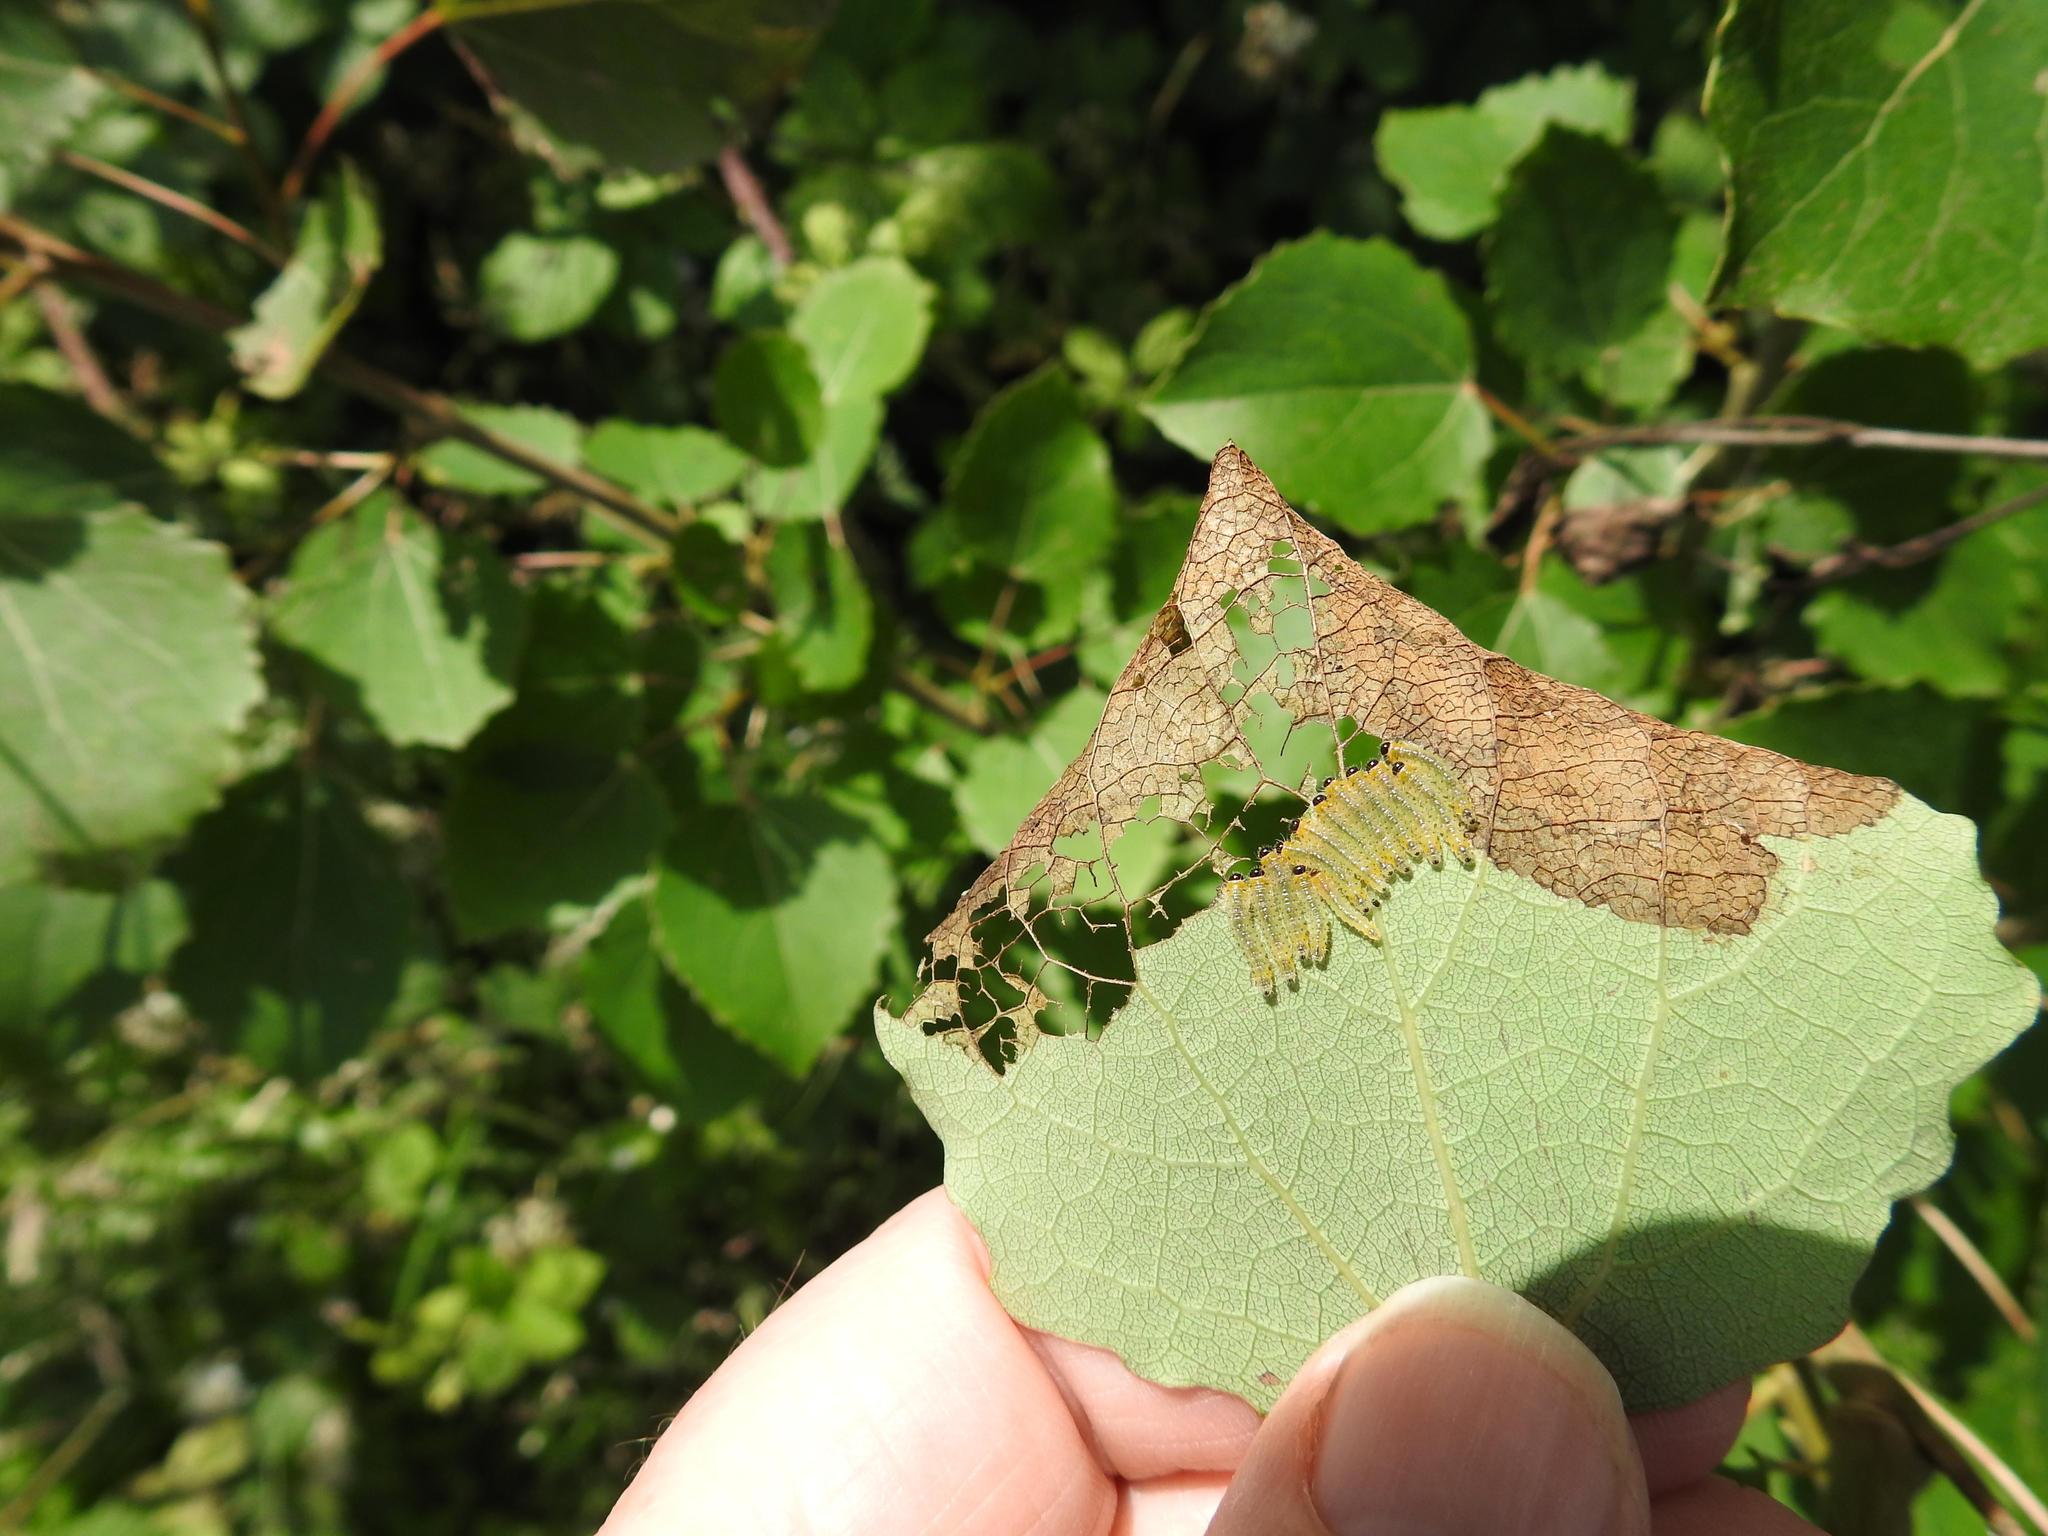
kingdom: Animalia
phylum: Arthropoda
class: Insecta
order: Hymenoptera
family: Tenthredinidae
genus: Cladius
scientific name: Cladius grandis
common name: Common sawfly
